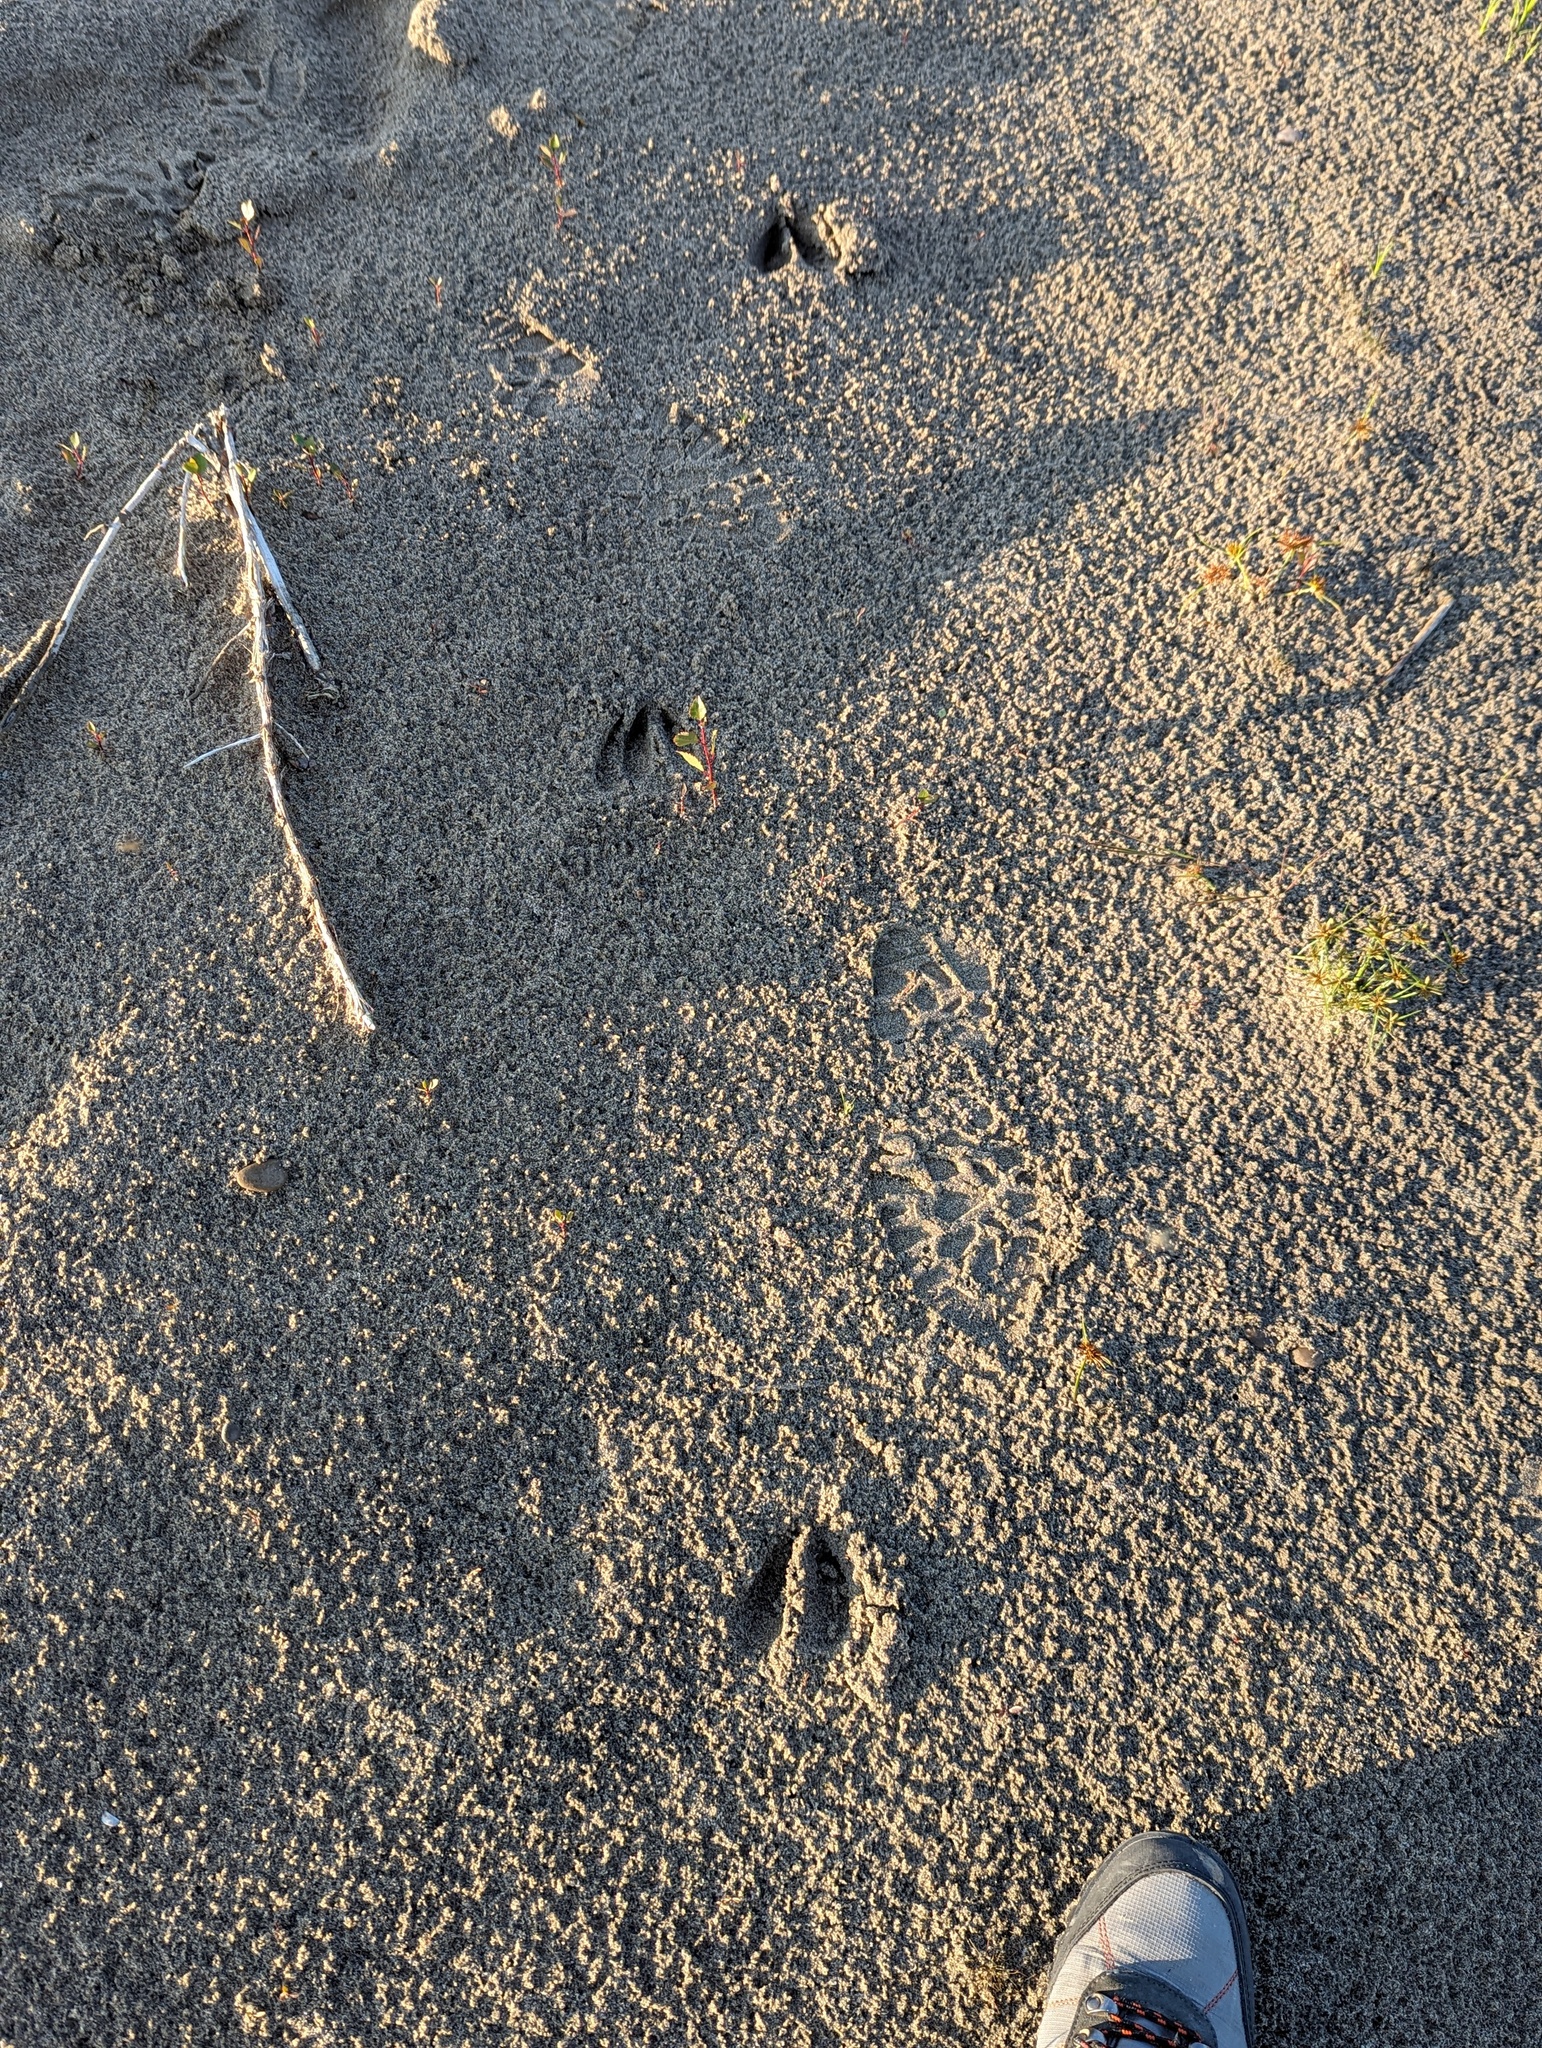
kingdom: Animalia
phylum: Chordata
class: Mammalia
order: Artiodactyla
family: Cervidae
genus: Odocoileus
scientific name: Odocoileus virginianus
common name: White-tailed deer
